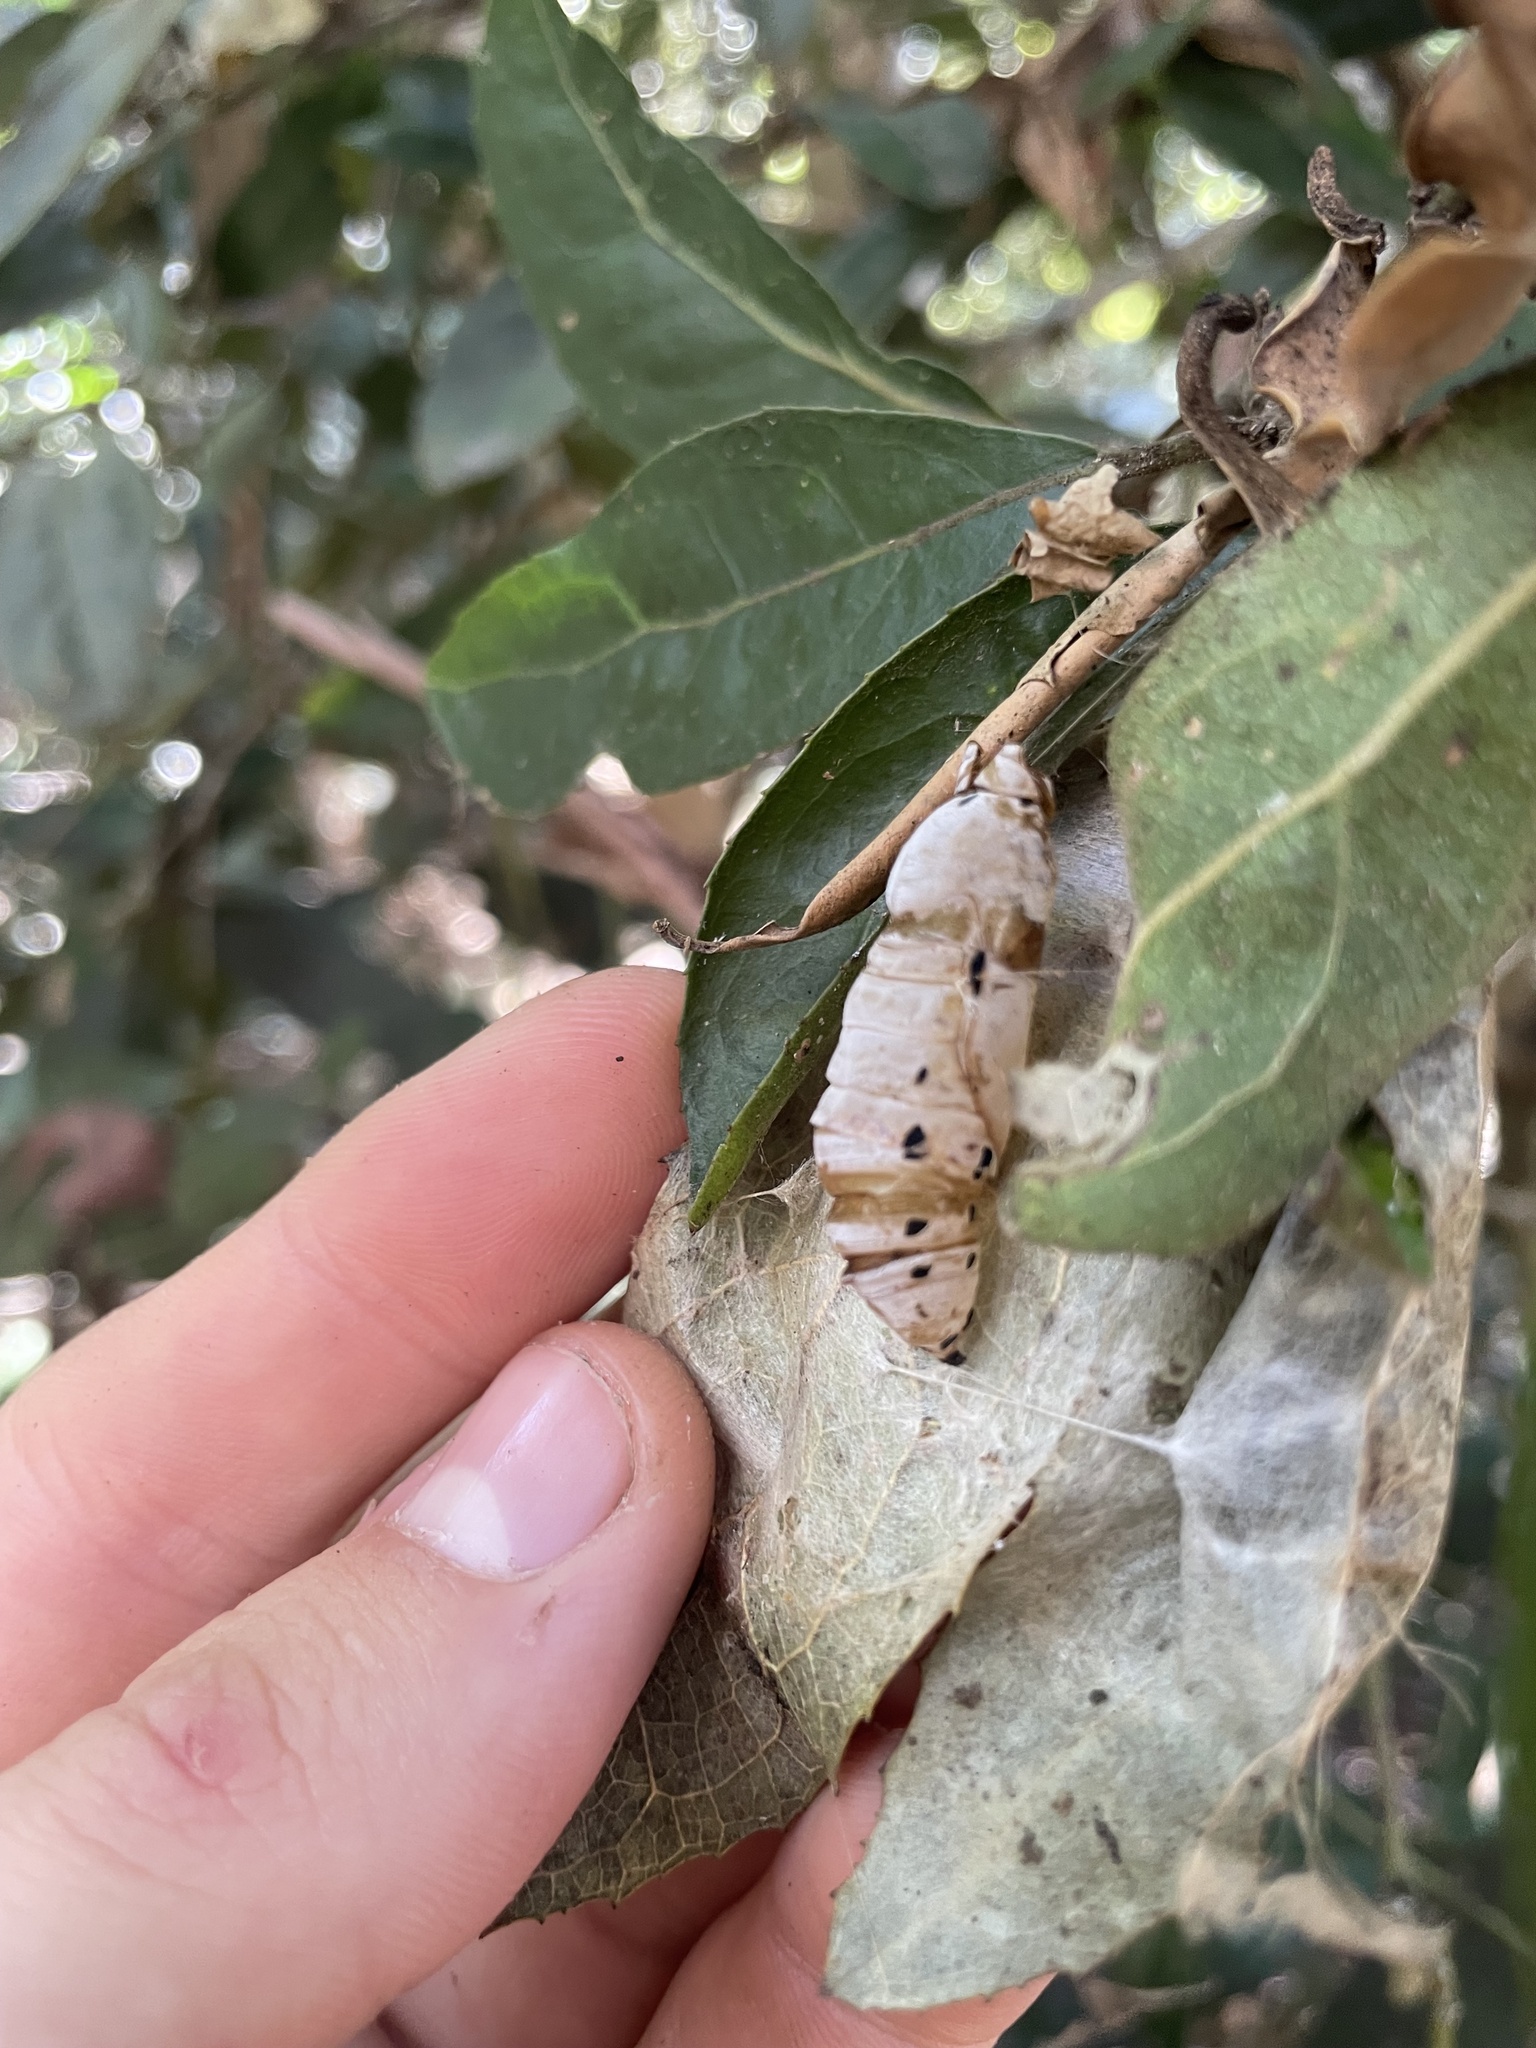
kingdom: Animalia
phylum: Arthropoda
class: Insecta
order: Lepidoptera
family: Hesperiidae
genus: Euschemon
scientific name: Euschemon rafflesia
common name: Regent skipper
